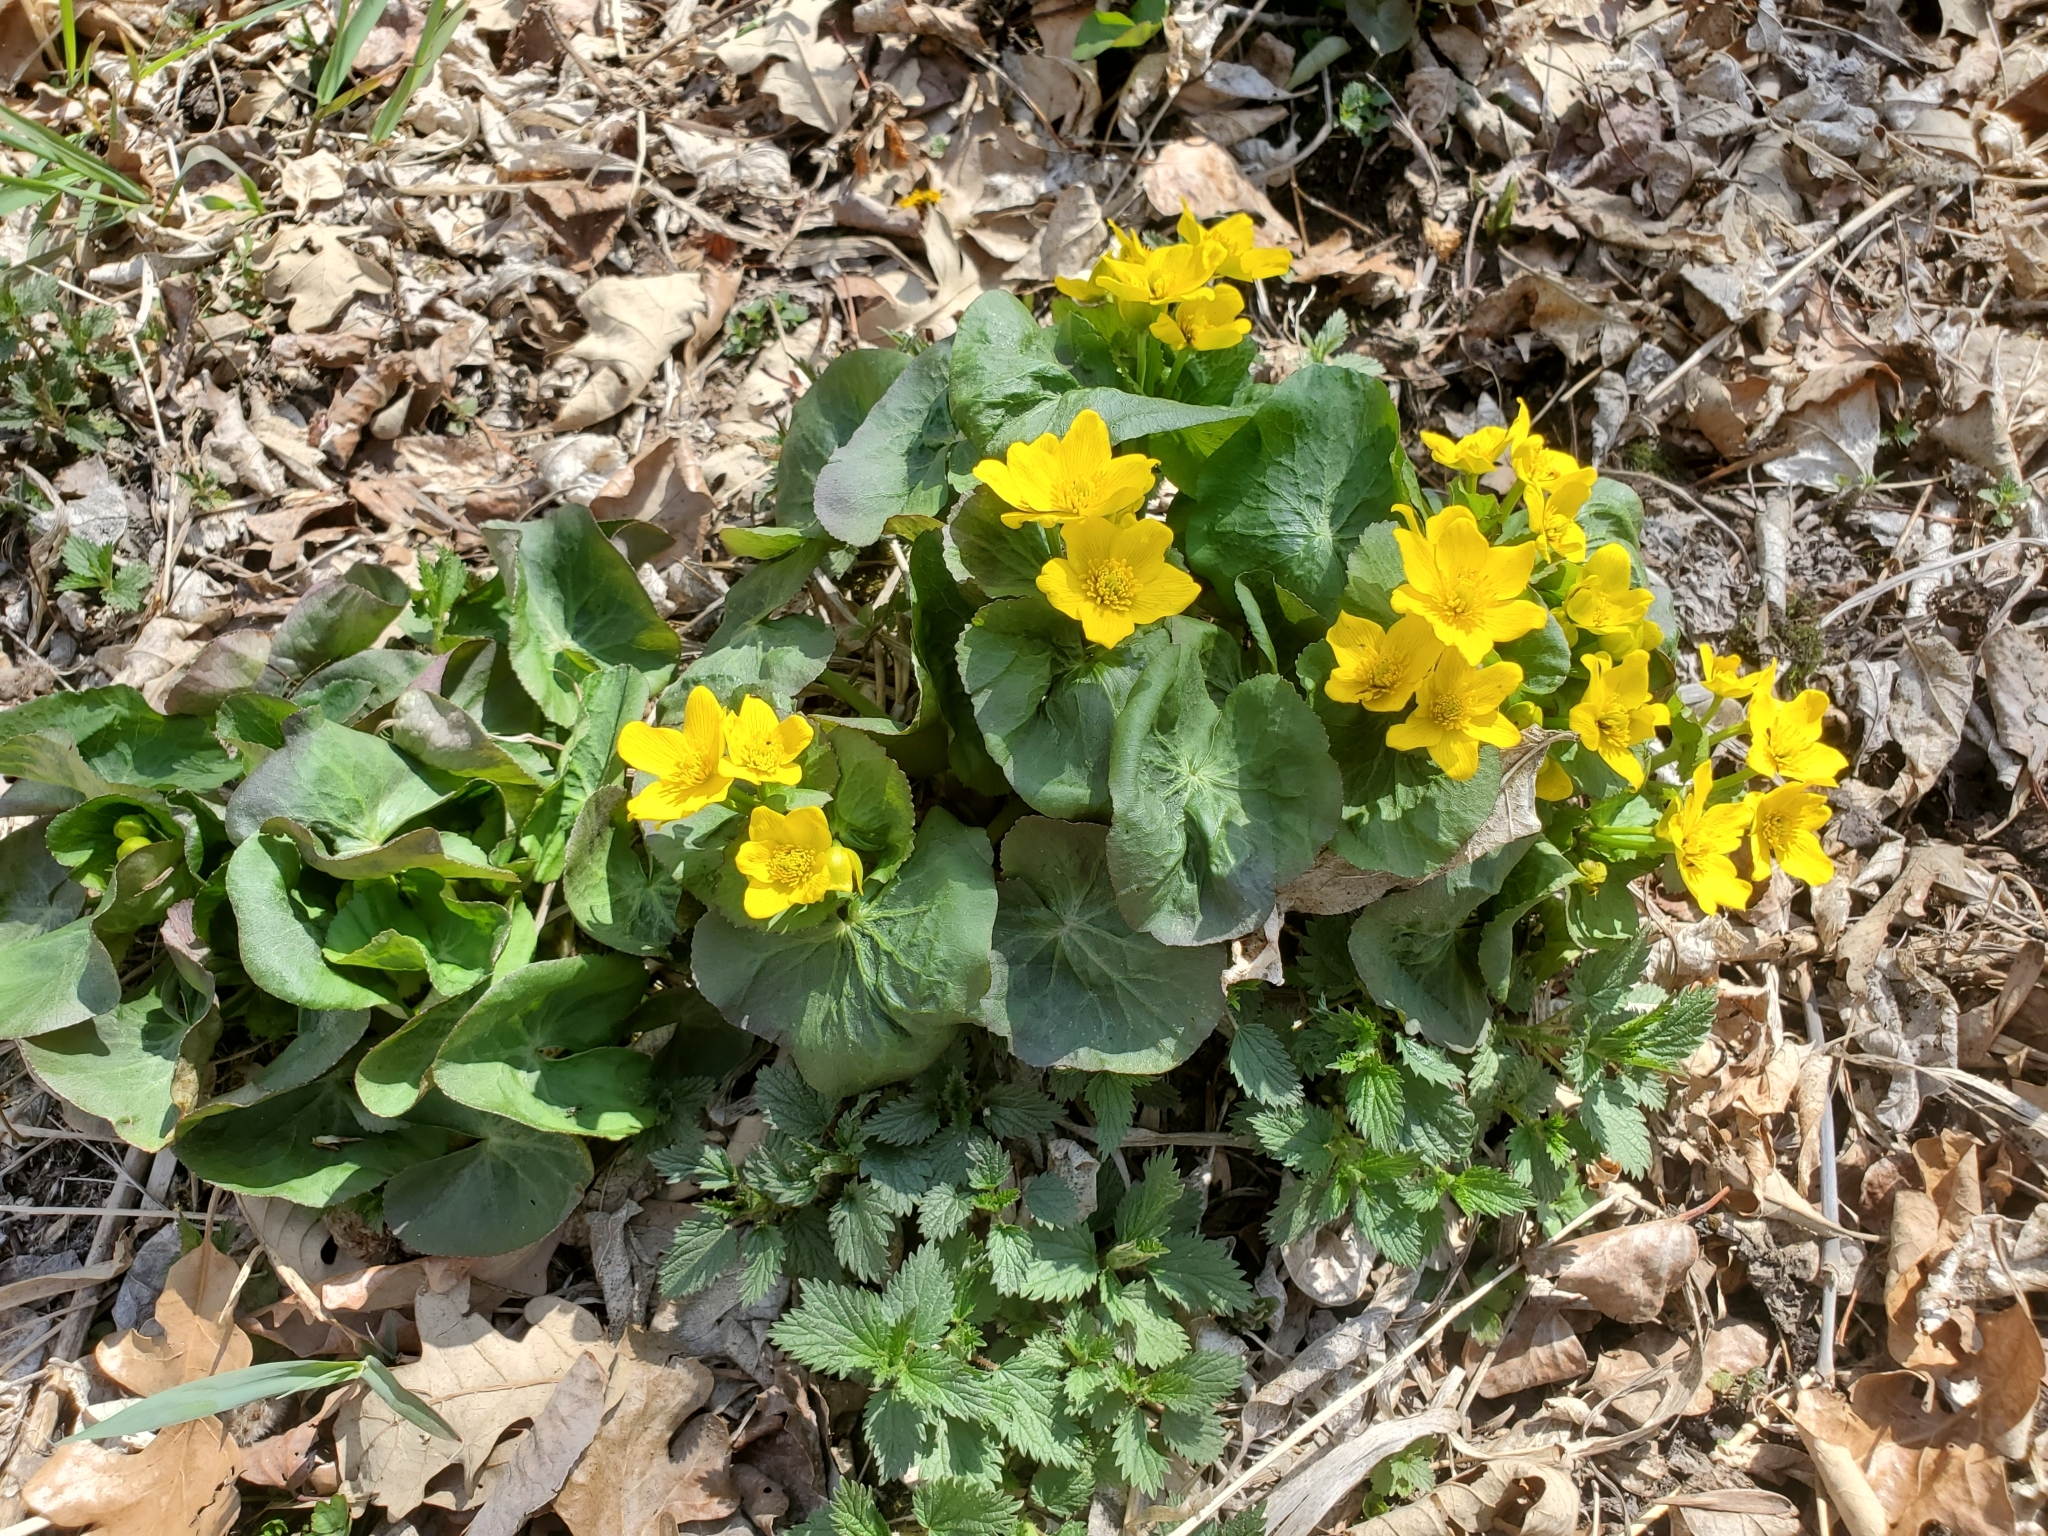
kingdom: Plantae
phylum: Tracheophyta
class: Magnoliopsida
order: Ranunculales
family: Ranunculaceae
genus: Caltha
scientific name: Caltha palustris
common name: Marsh marigold
